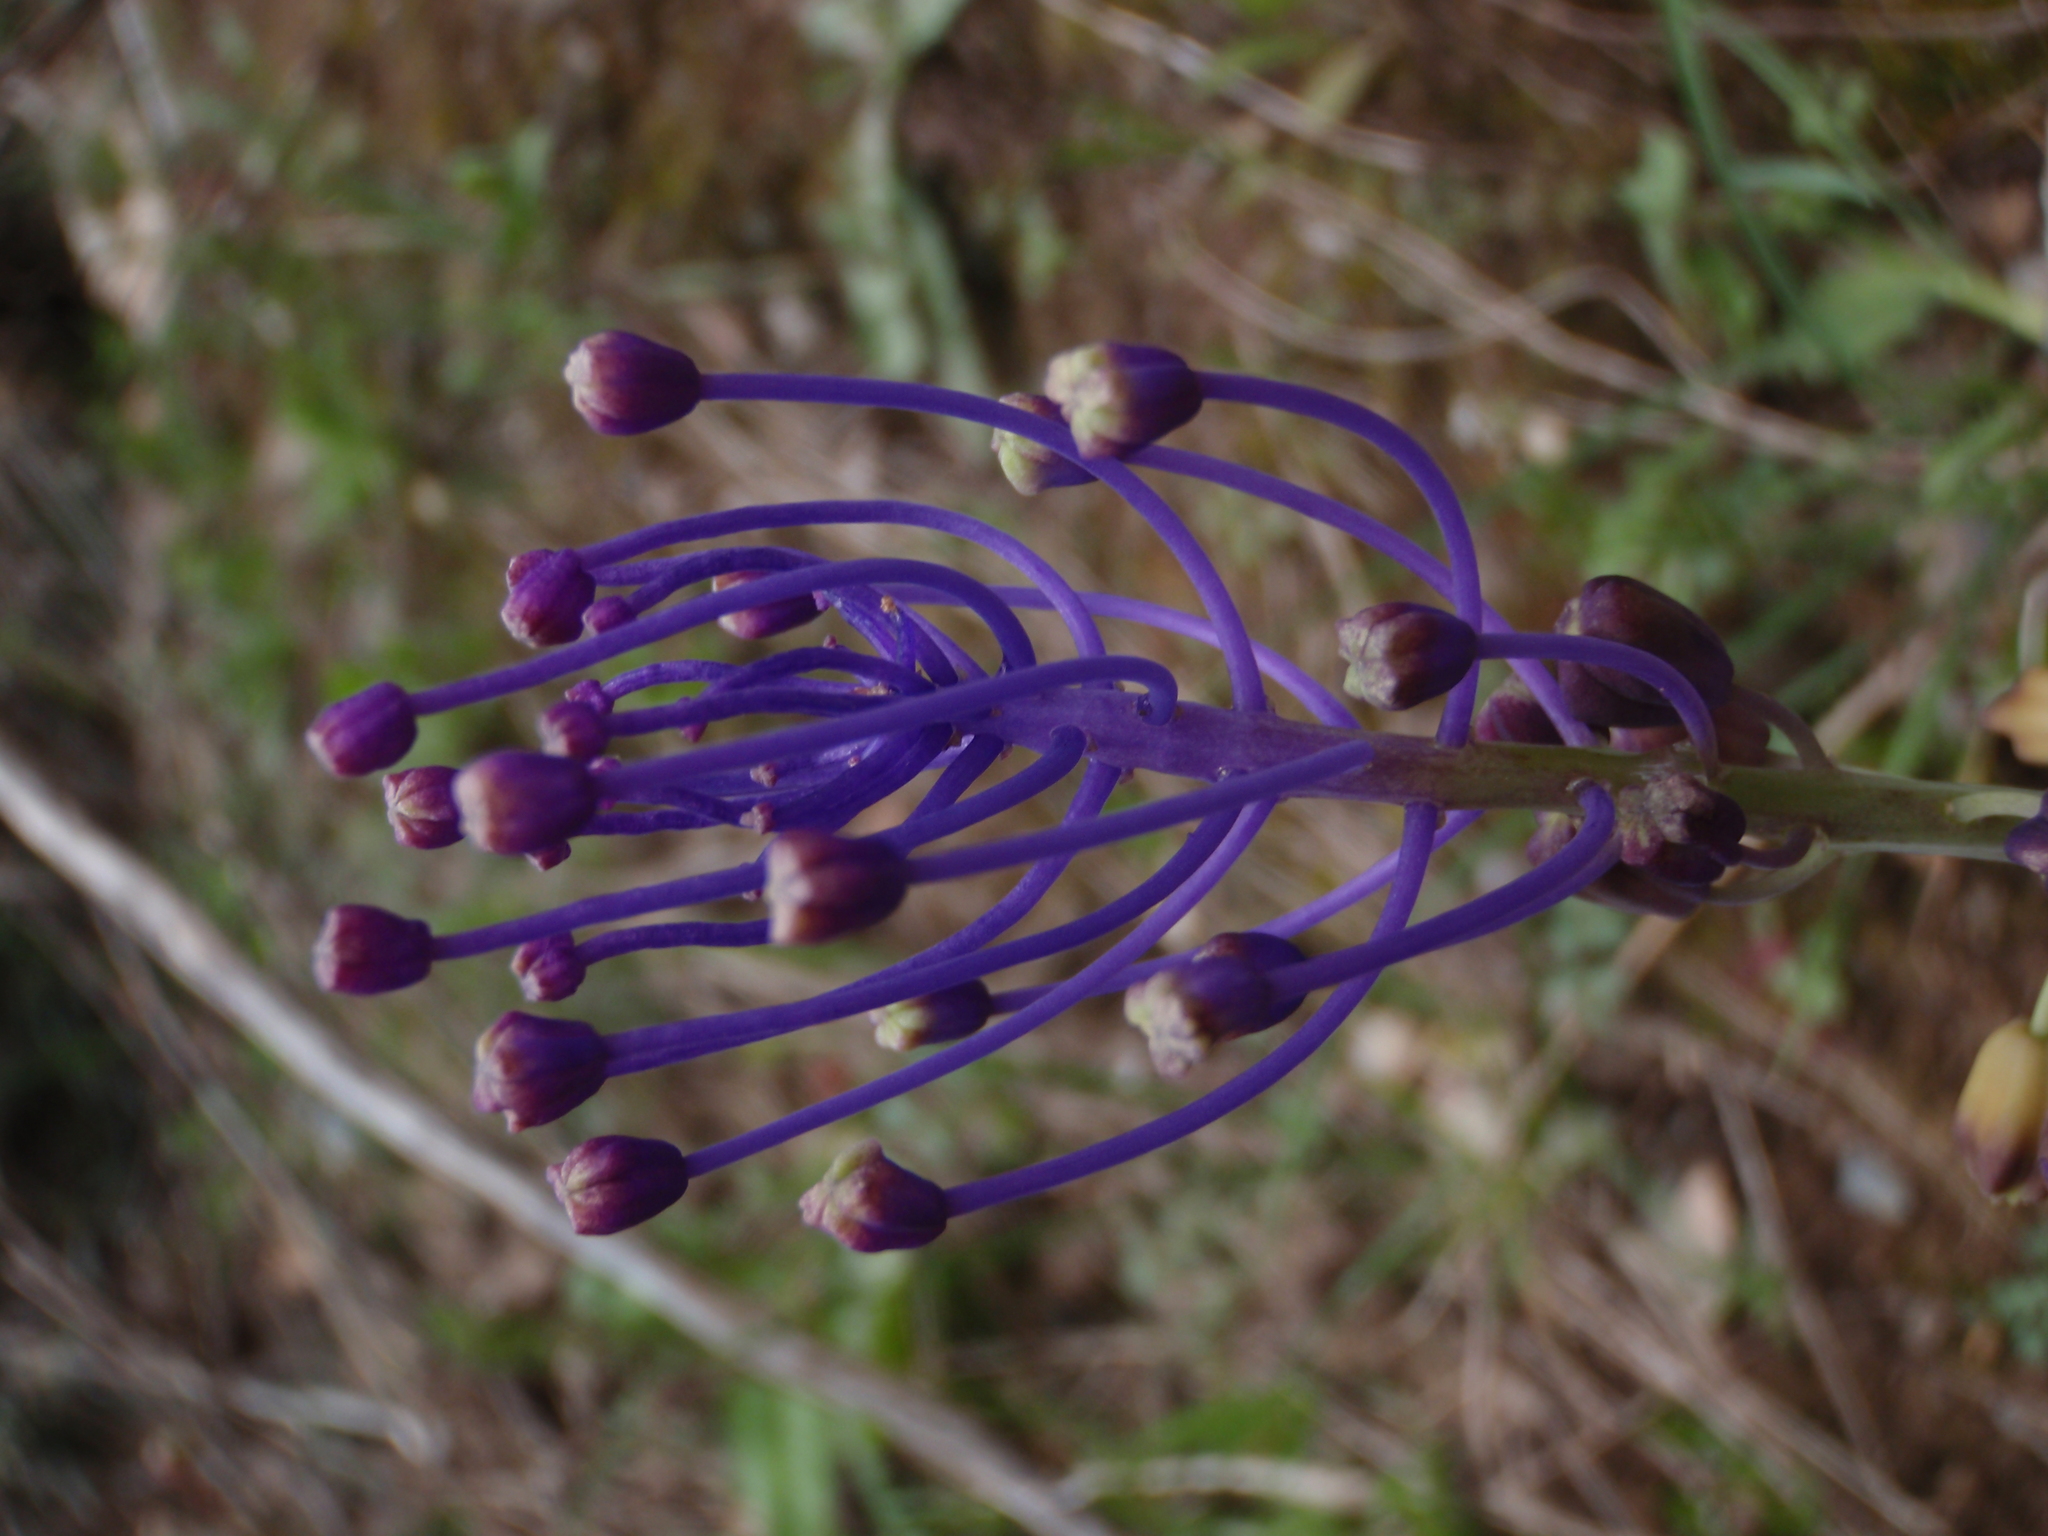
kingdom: Plantae
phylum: Tracheophyta
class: Liliopsida
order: Asparagales
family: Asparagaceae
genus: Muscari
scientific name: Muscari comosum
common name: Tassel hyacinth
